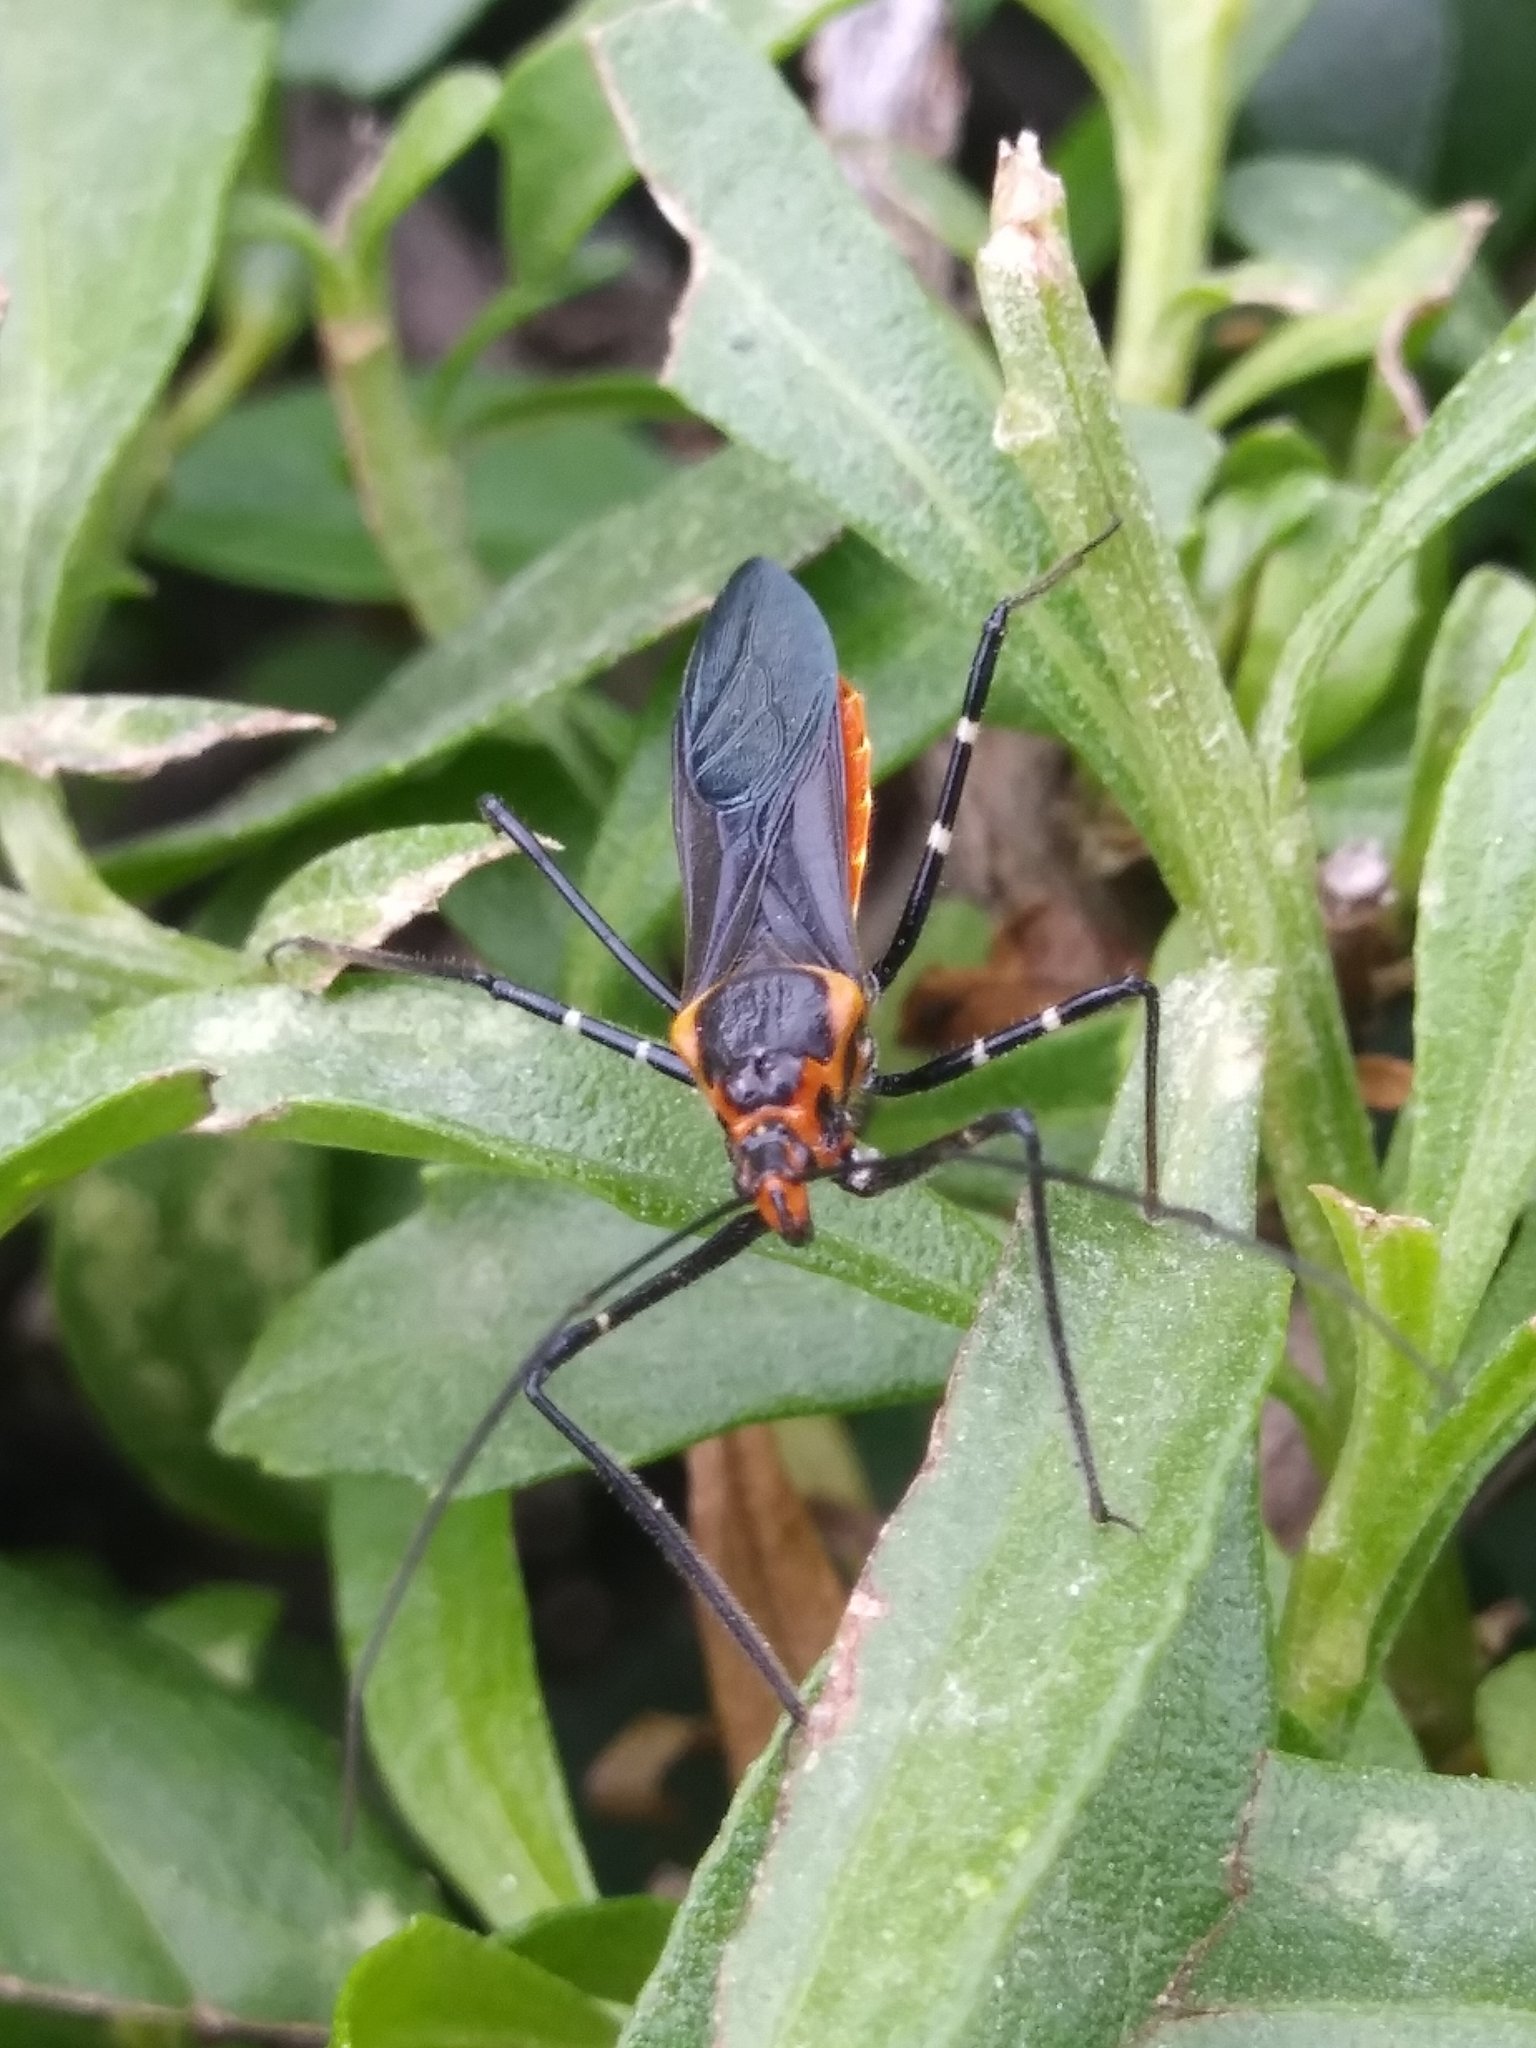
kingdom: Animalia
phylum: Arthropoda
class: Insecta
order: Hemiptera
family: Reduviidae
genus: Zelus
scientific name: Zelus longipes
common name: Milkweed assassin bug
